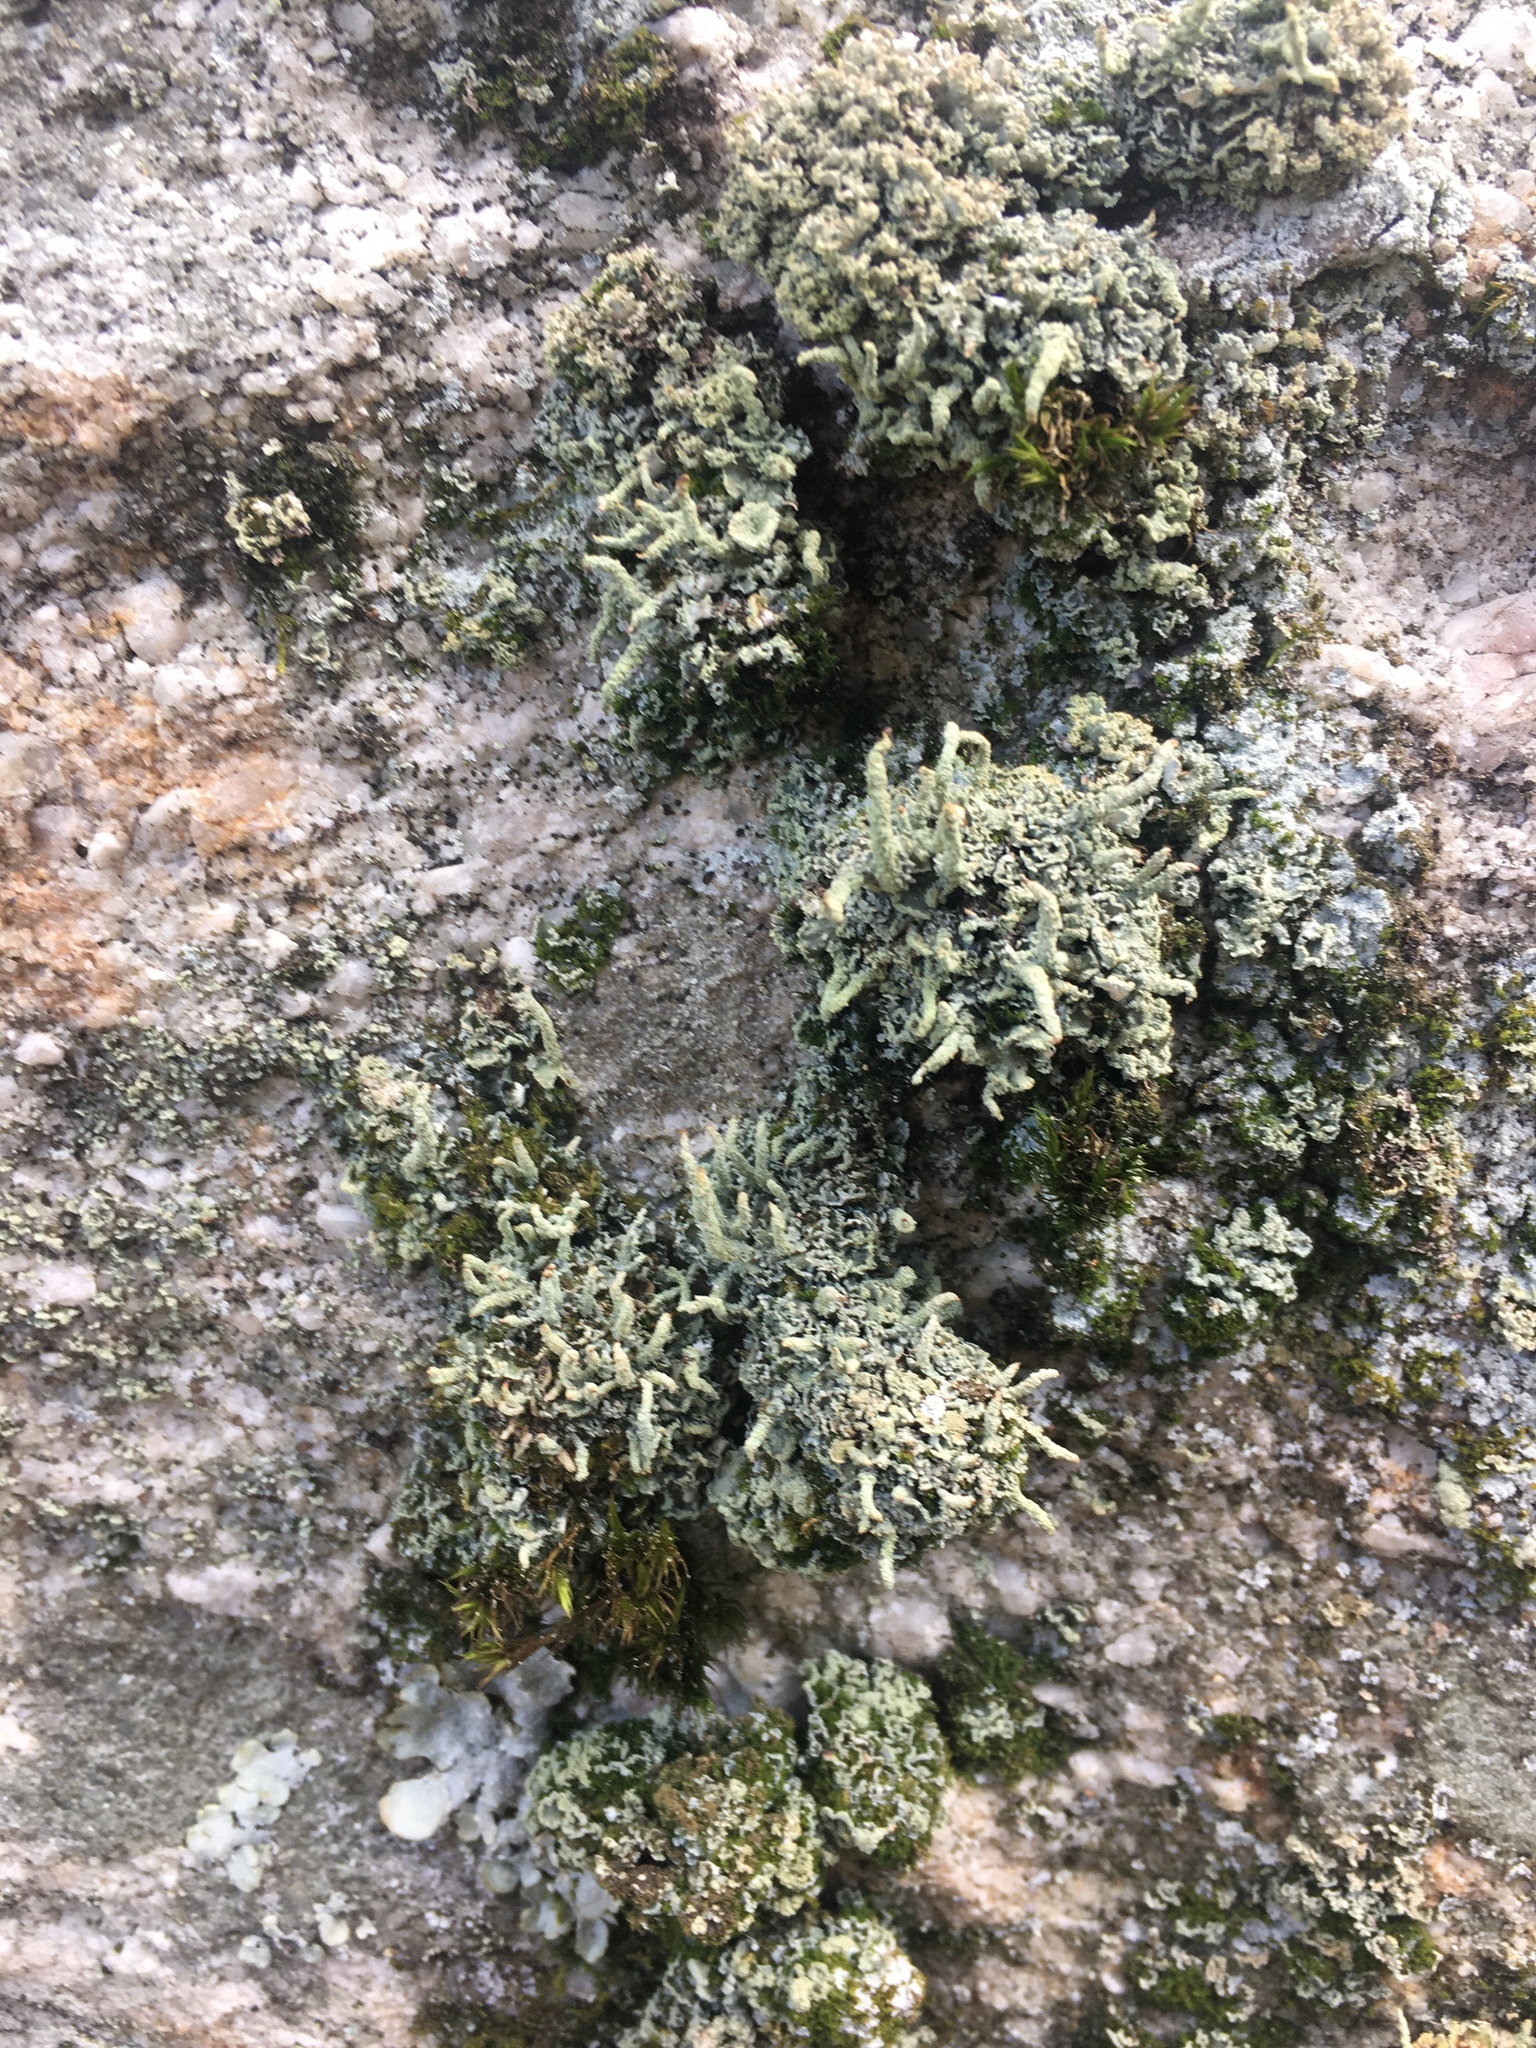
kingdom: Fungi
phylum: Ascomycota
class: Lecanoromycetes
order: Lecanorales
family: Cladoniaceae
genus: Cladonia
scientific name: Cladonia coniocraea
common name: Common powderhorn
